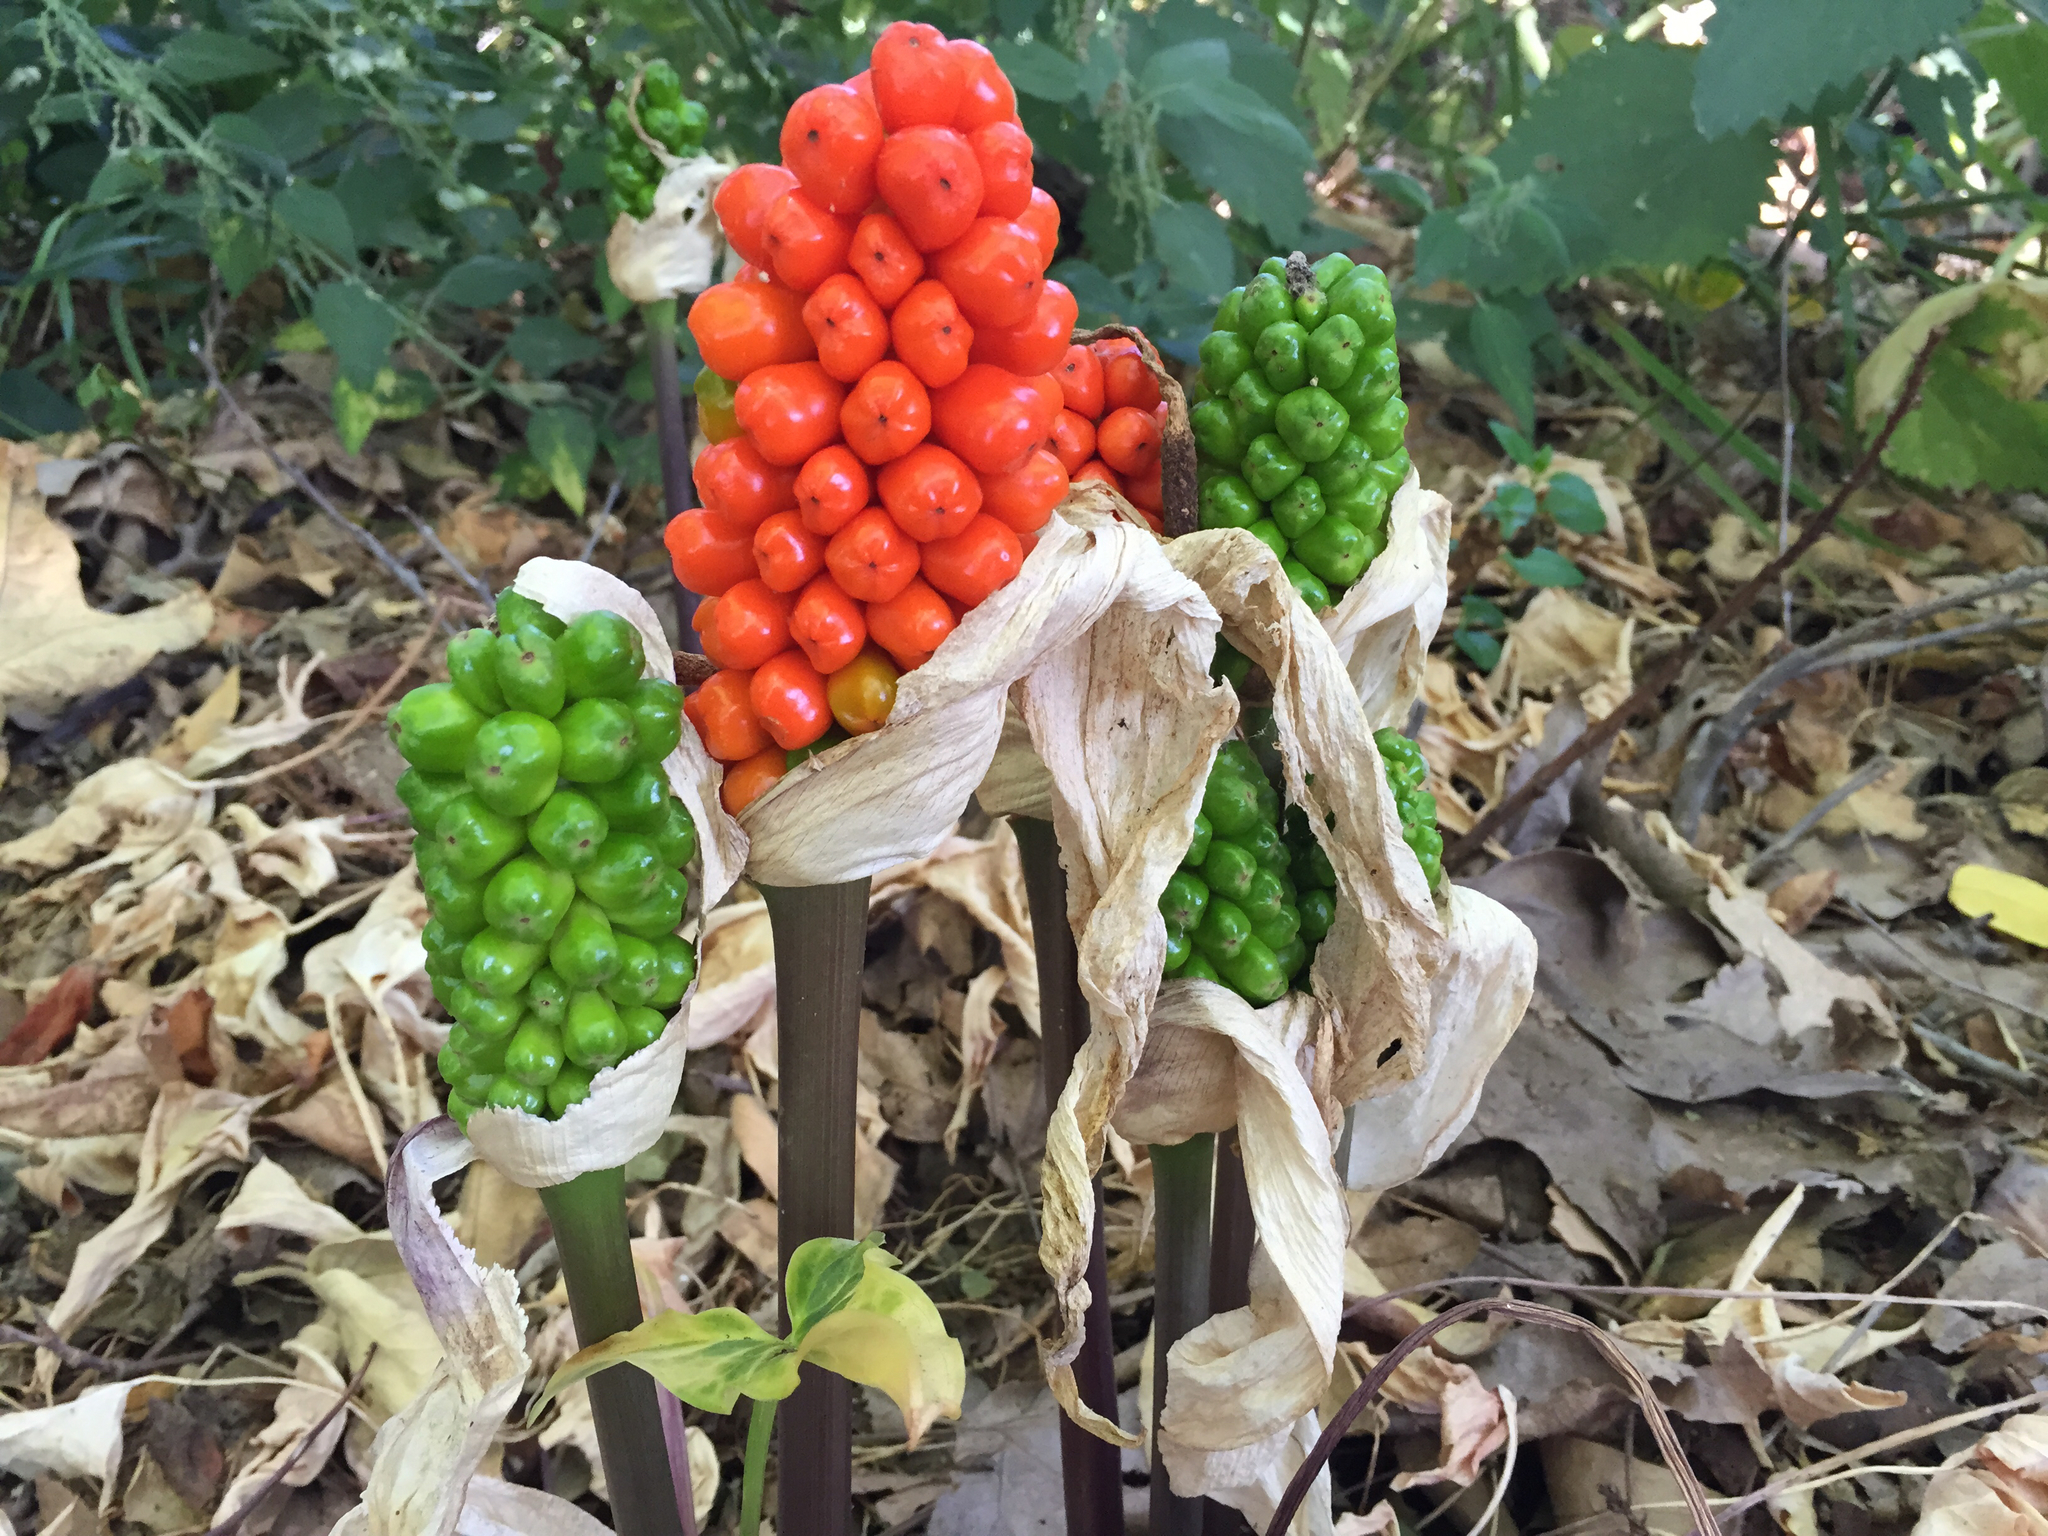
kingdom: Plantae
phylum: Tracheophyta
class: Liliopsida
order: Alismatales
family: Araceae
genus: Arum
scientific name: Arum italicum
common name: Italian lords-and-ladies
